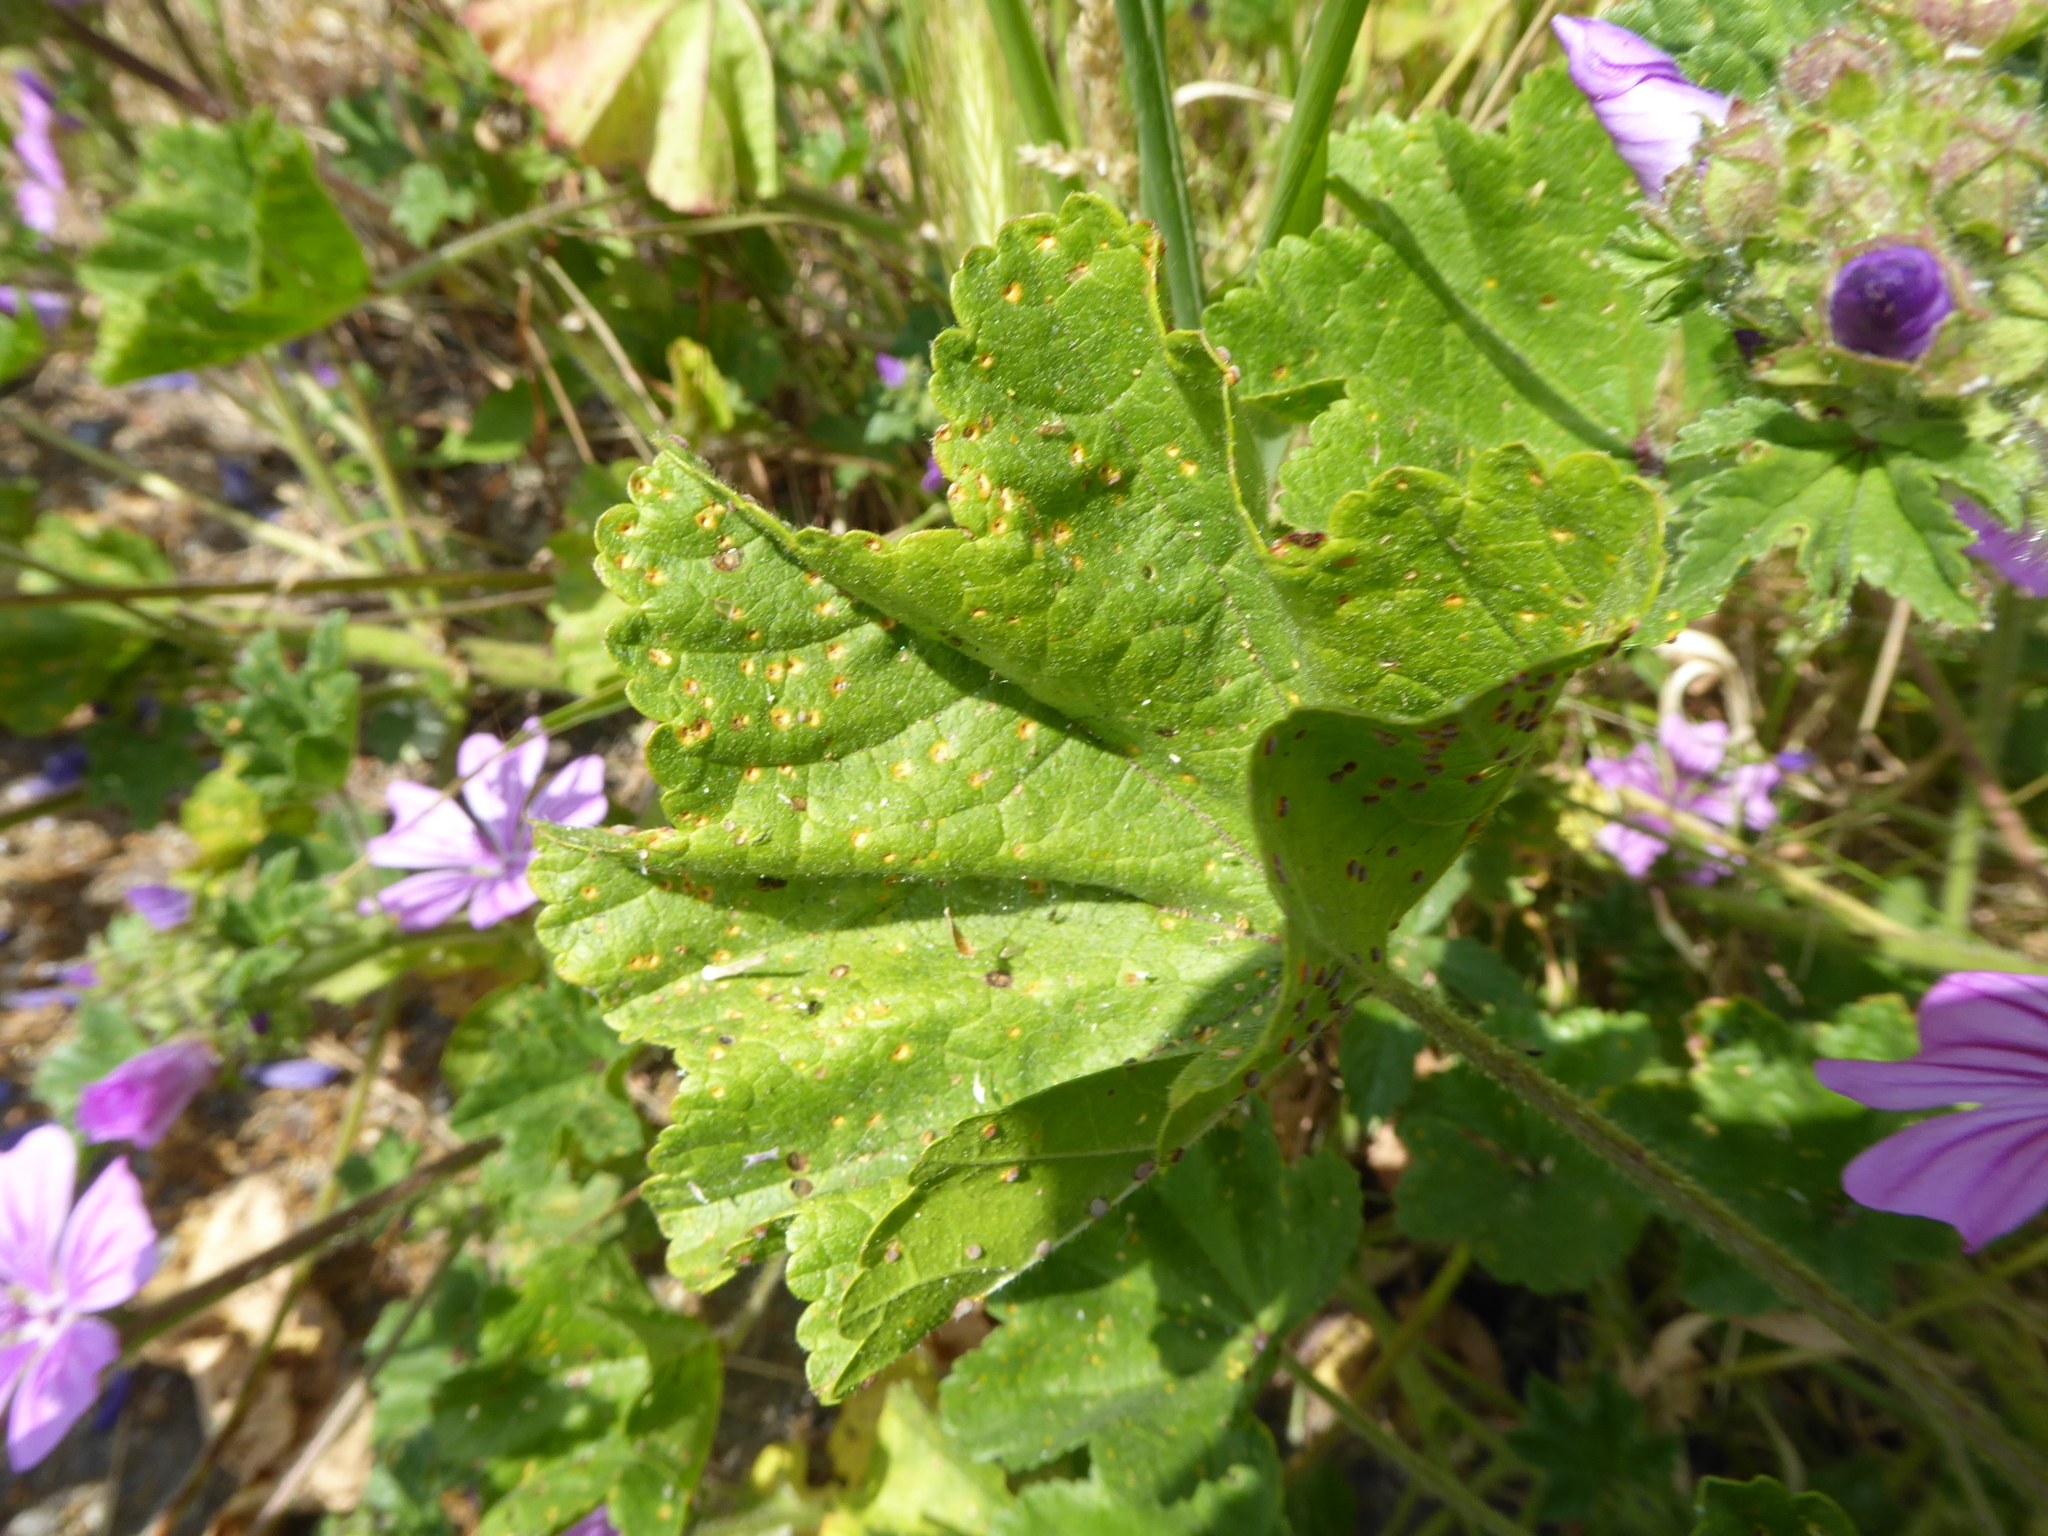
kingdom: Plantae
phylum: Tracheophyta
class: Magnoliopsida
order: Malvales
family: Malvaceae
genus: Malva
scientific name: Malva sylvestris
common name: Common mallow
